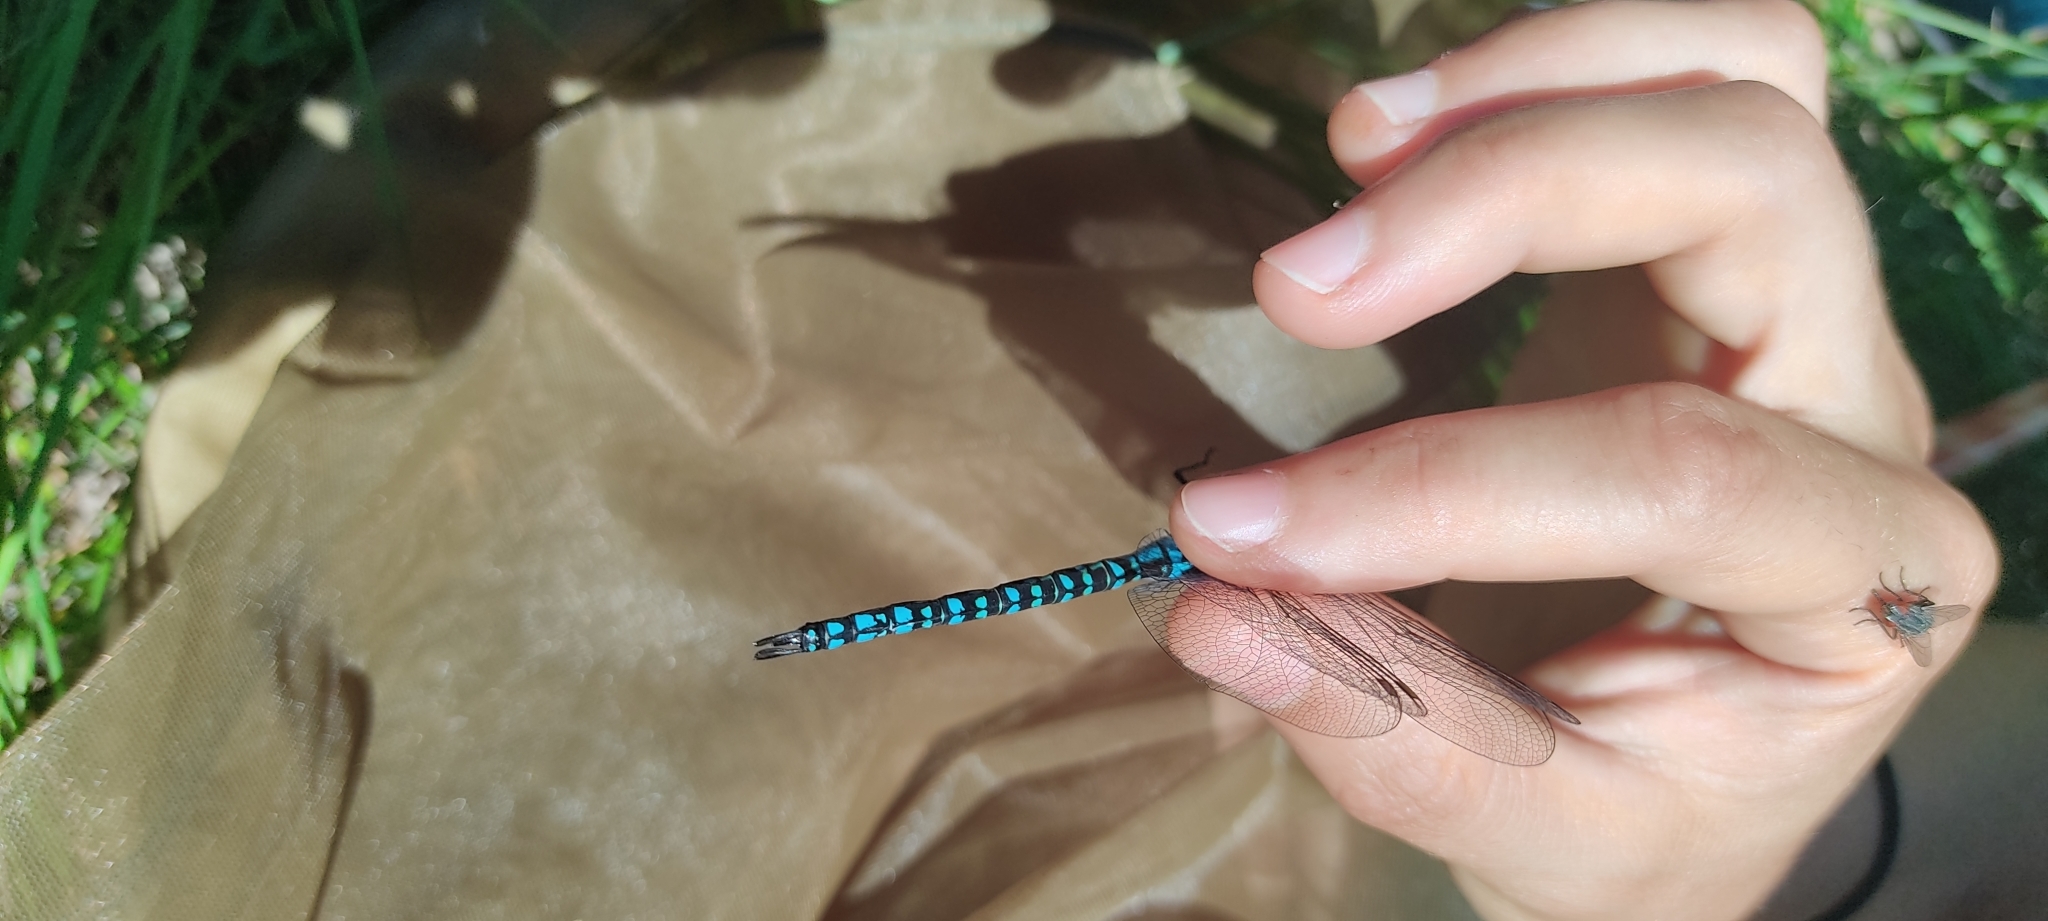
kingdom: Animalia
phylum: Arthropoda
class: Insecta
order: Odonata
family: Aeshnidae
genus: Aeshna
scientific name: Aeshna affinis
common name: Southern migrant hawker
